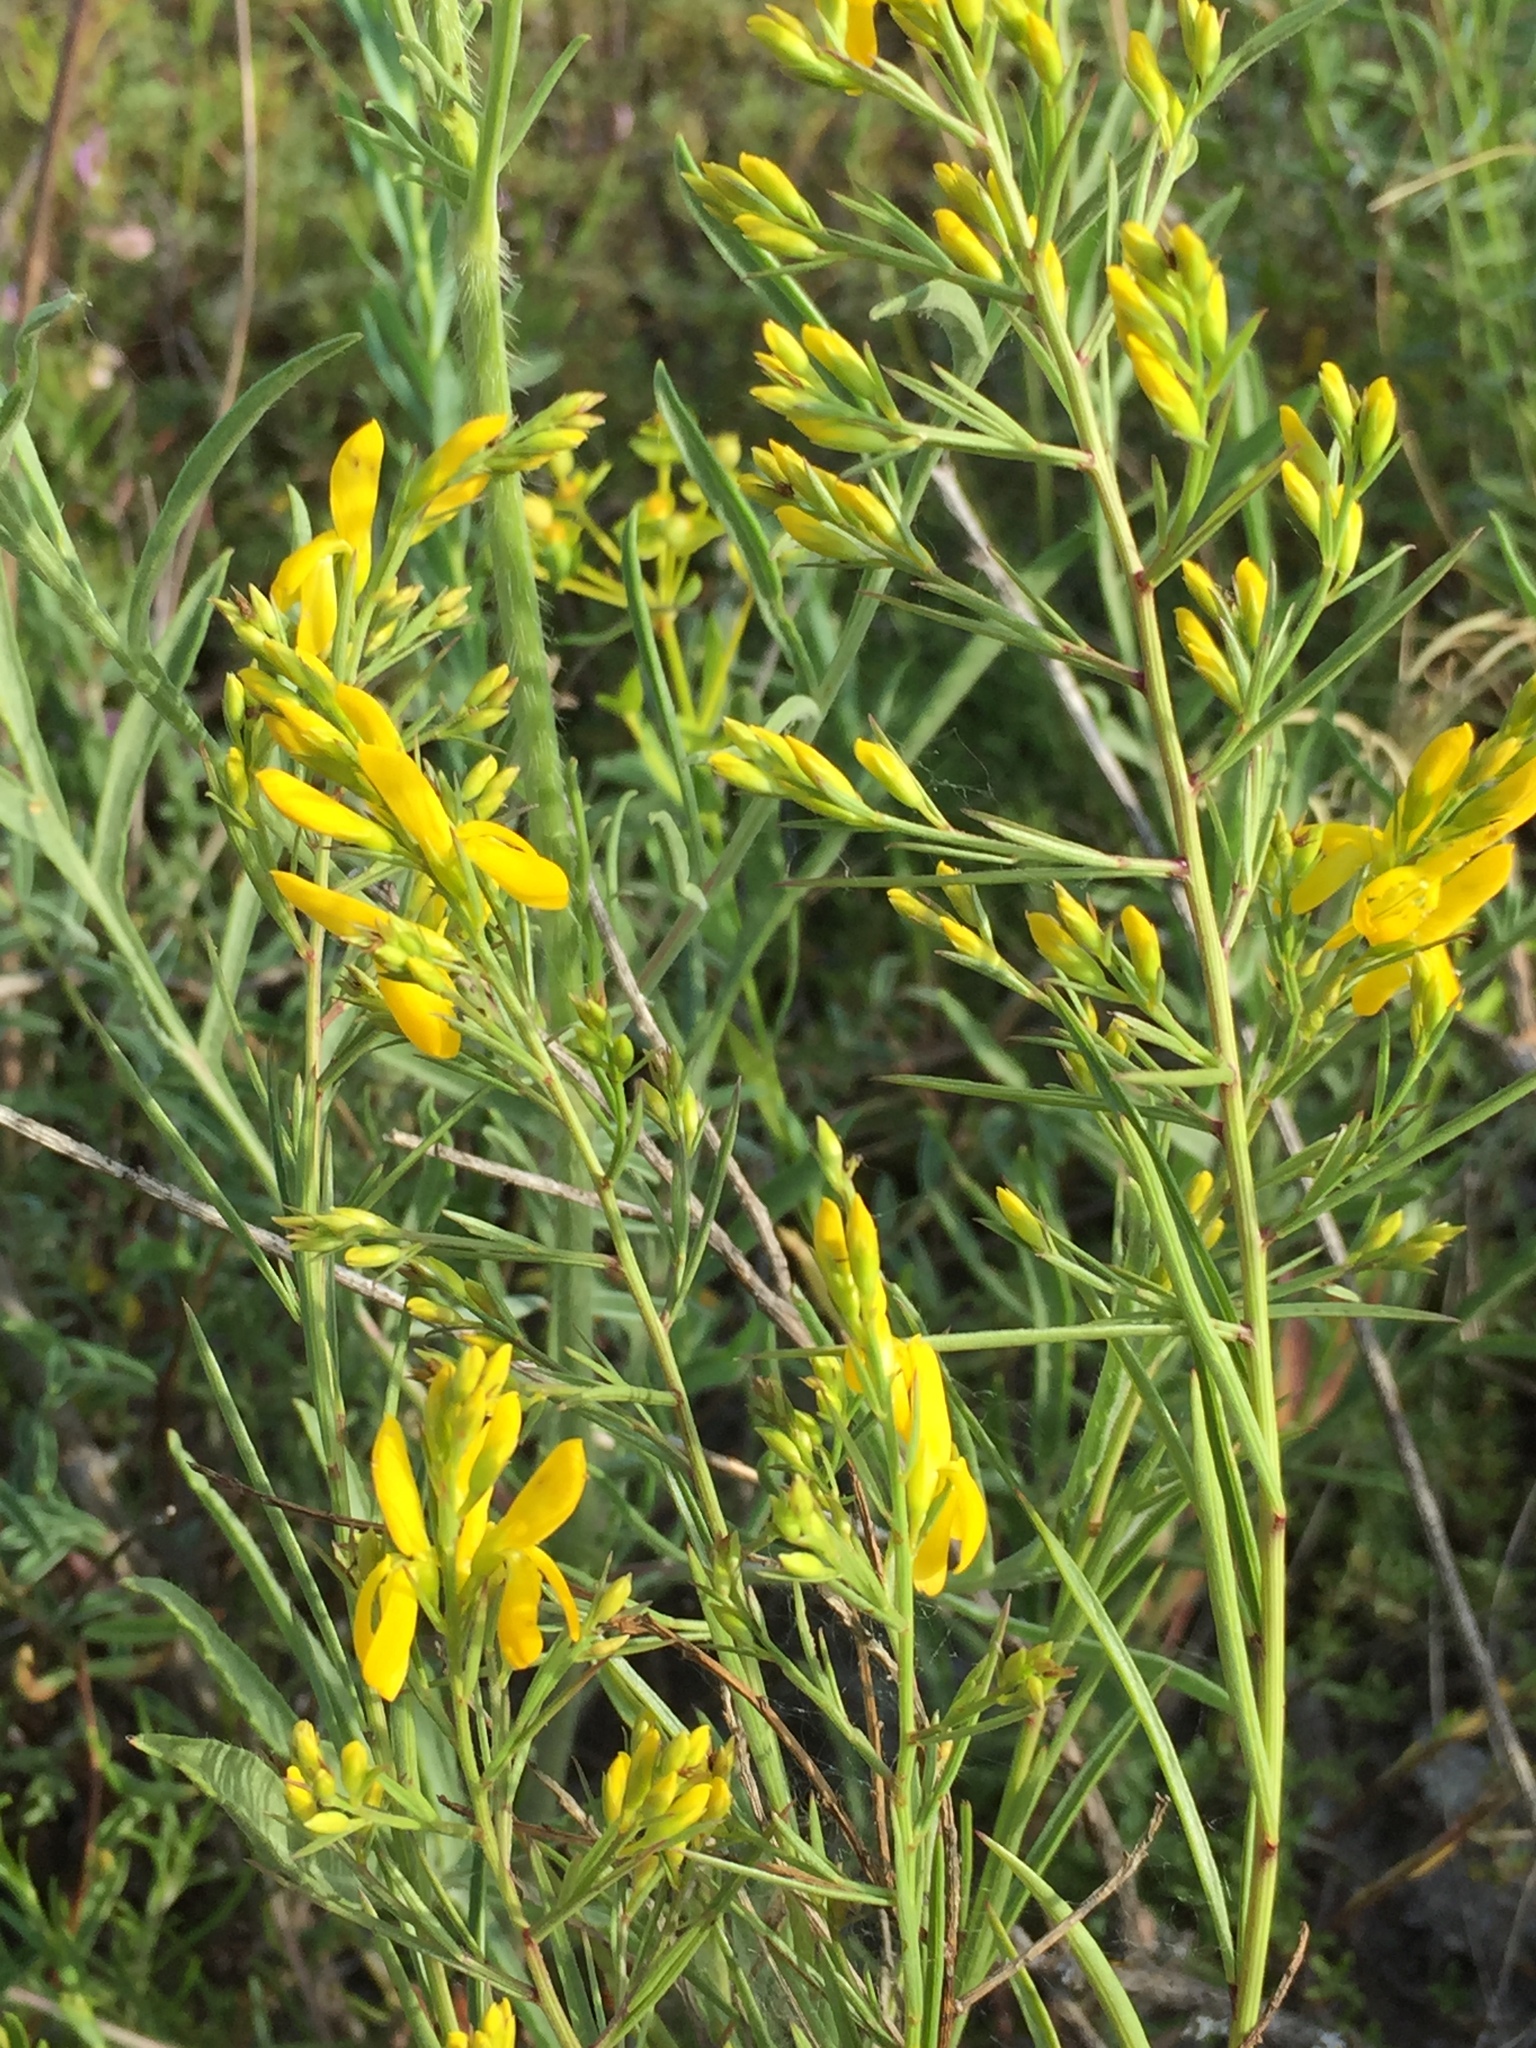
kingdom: Plantae
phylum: Tracheophyta
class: Magnoliopsida
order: Fabales
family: Fabaceae
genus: Genista
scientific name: Genista tinctoria
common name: Dyer's greenweed
